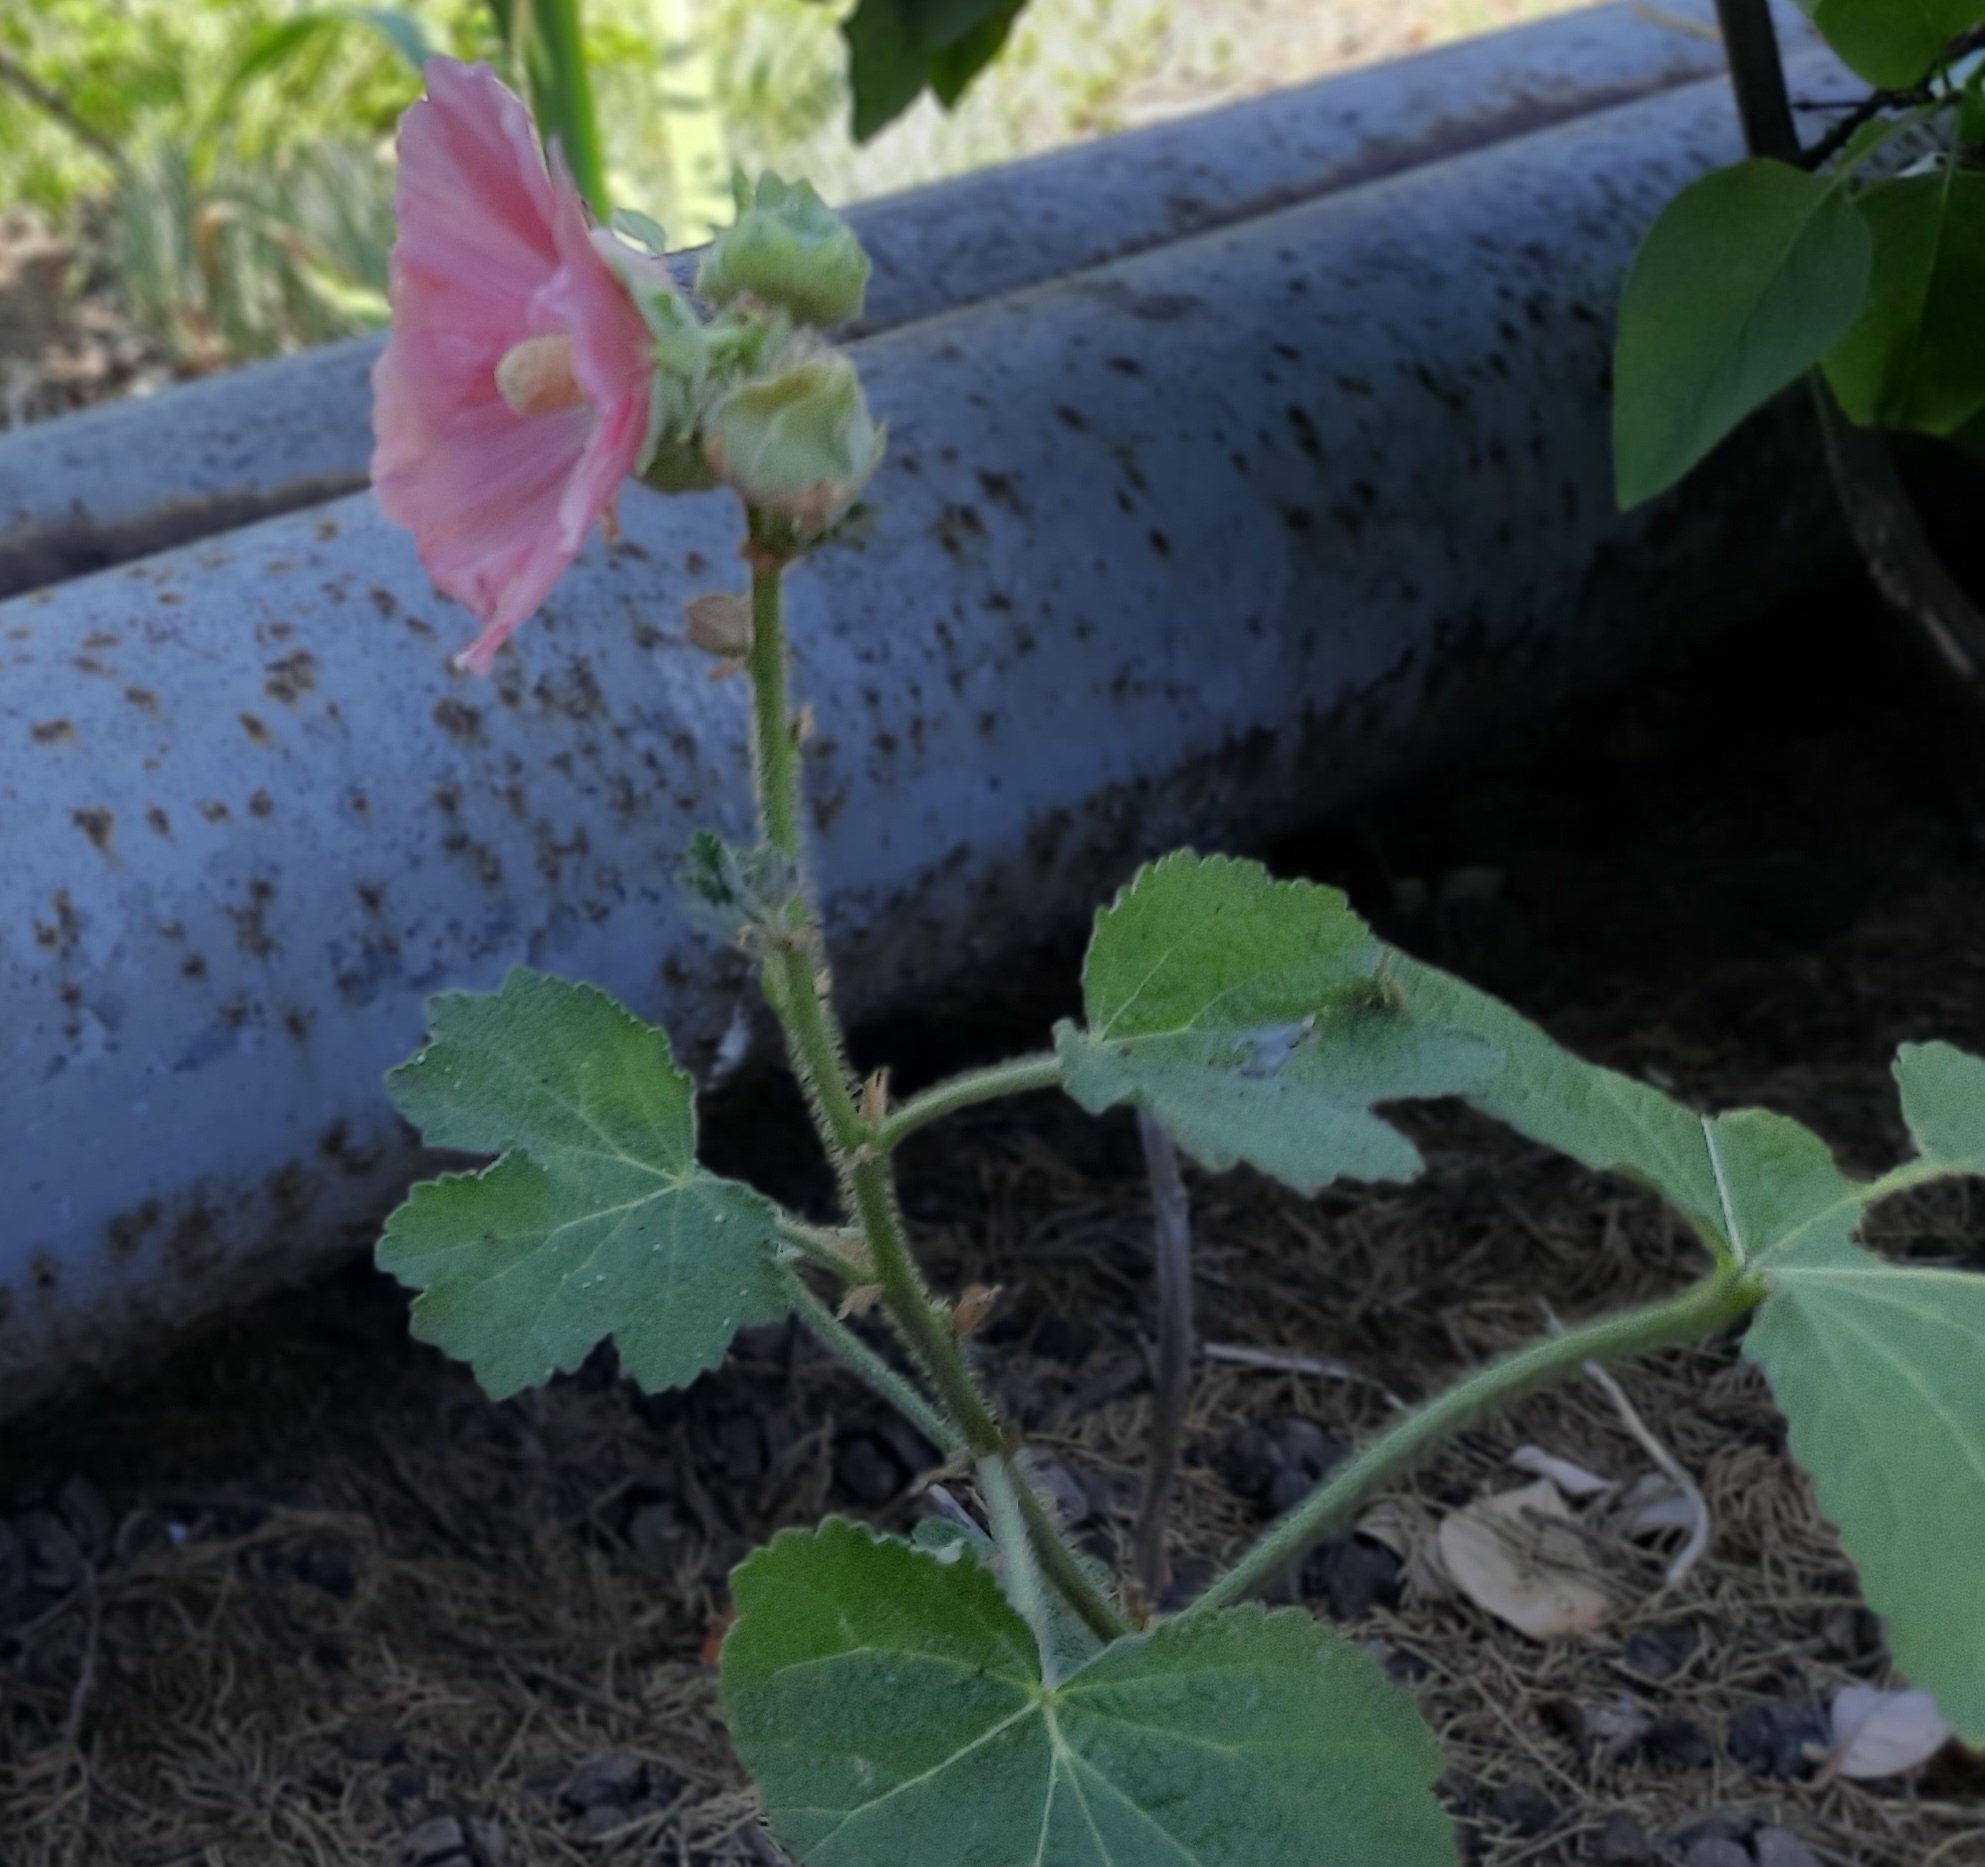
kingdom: Plantae
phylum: Tracheophyta
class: Magnoliopsida
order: Malvales
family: Malvaceae
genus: Alcea
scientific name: Alcea rosea
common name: Hollyhock
